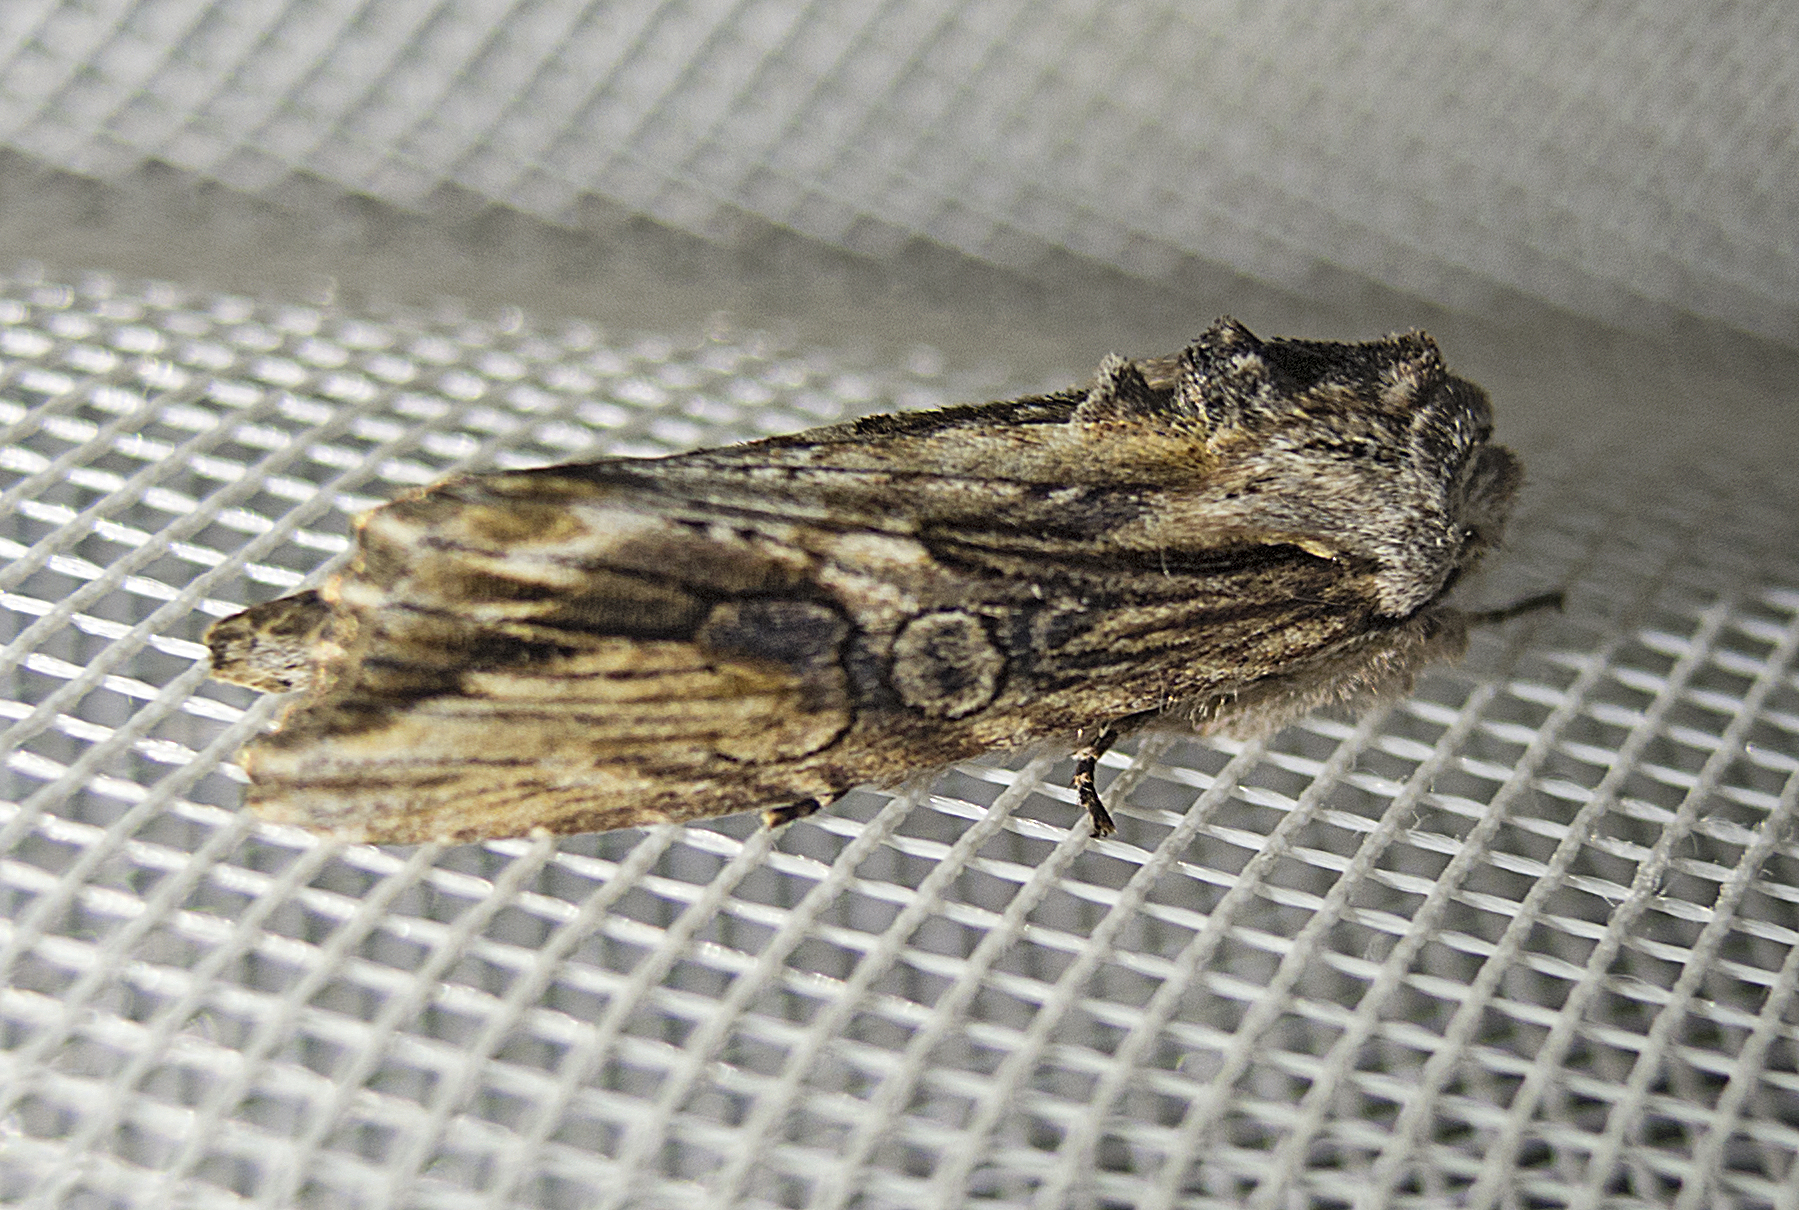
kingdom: Animalia
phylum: Arthropoda
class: Insecta
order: Lepidoptera
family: Noctuidae
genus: Egira
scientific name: Egira conspicillaris
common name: Silver cloud
